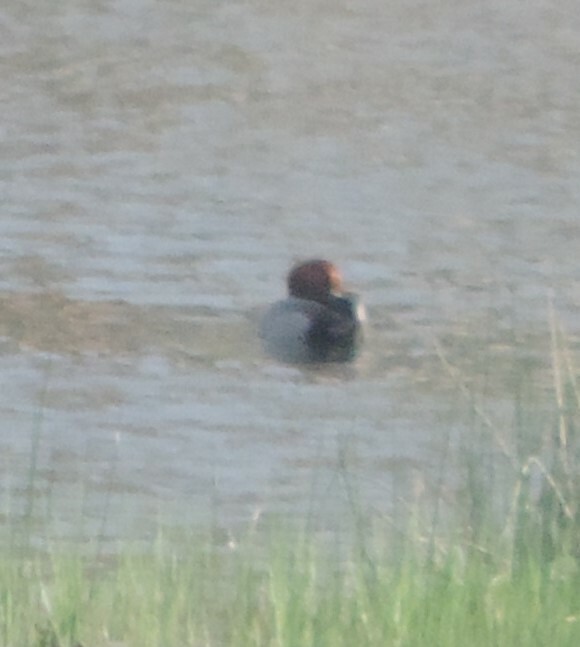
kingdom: Animalia
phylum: Chordata
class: Aves
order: Anseriformes
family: Anatidae
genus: Aythya
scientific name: Aythya americana
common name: Redhead
